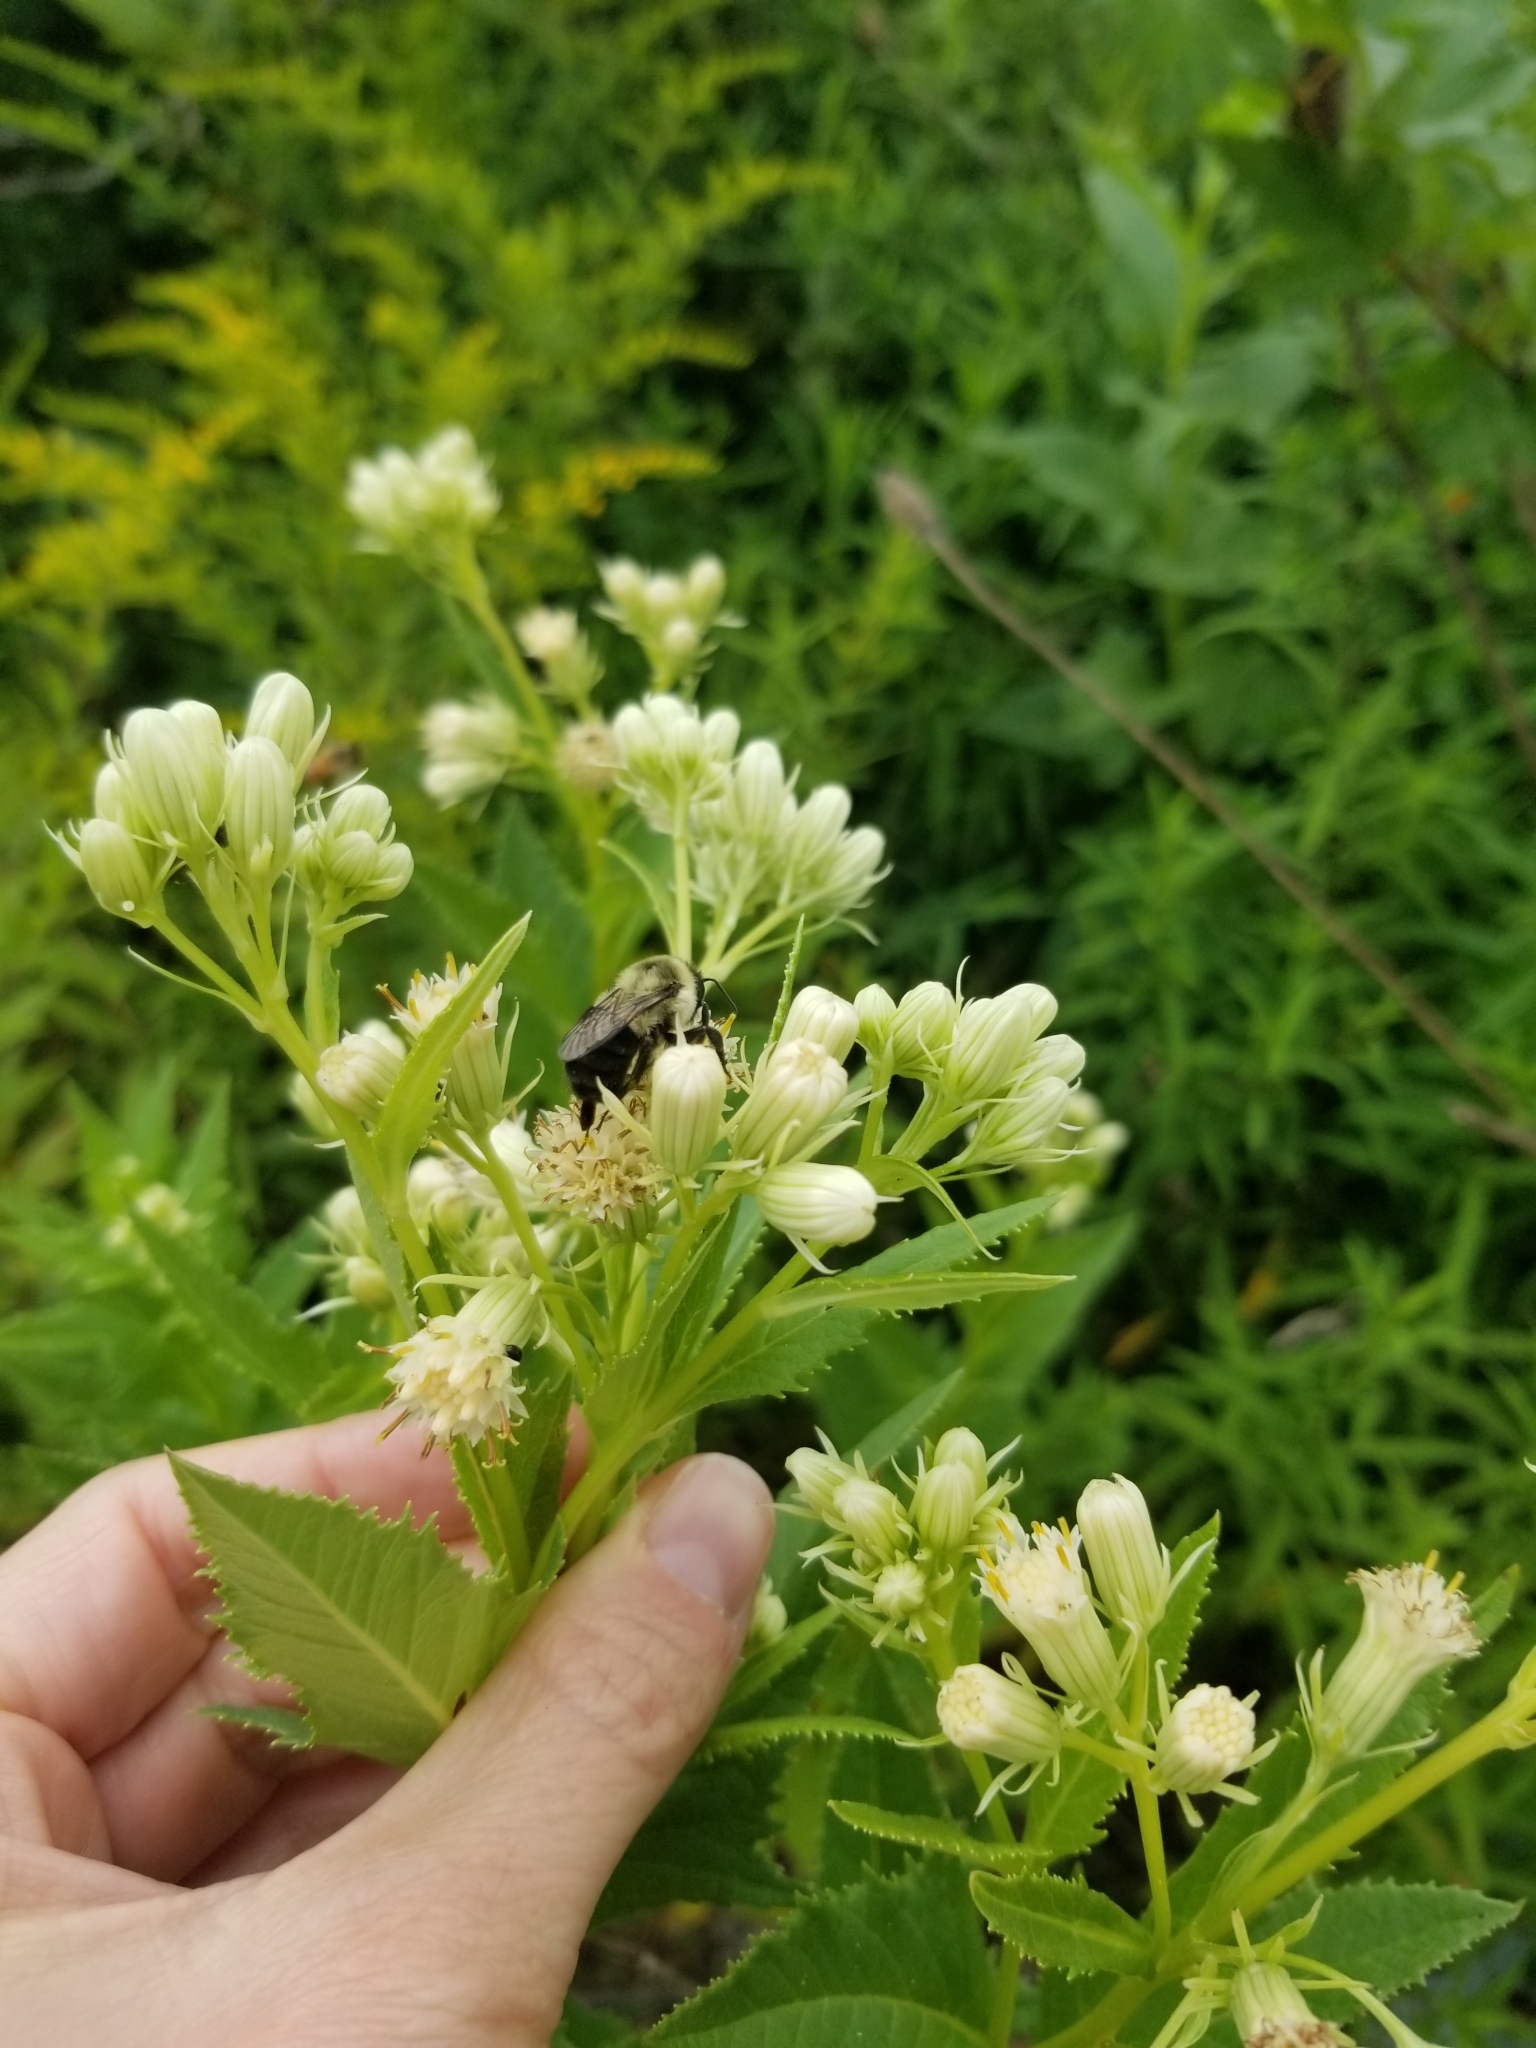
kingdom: Plantae
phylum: Tracheophyta
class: Magnoliopsida
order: Asterales
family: Asteraceae
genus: Hasteola
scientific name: Hasteola suaveolens
